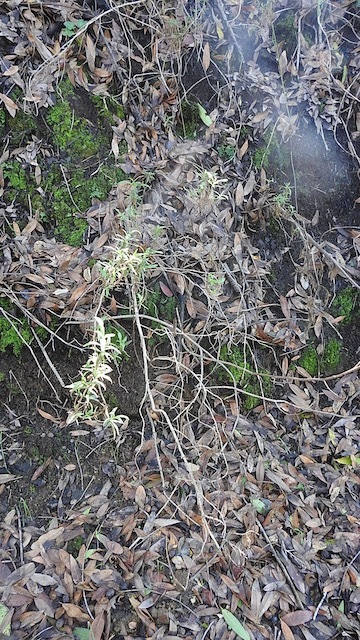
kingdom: Plantae
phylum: Tracheophyta
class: Magnoliopsida
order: Lamiales
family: Phrymaceae
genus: Diplacus
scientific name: Diplacus aurantiacus
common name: Bush monkey-flower
